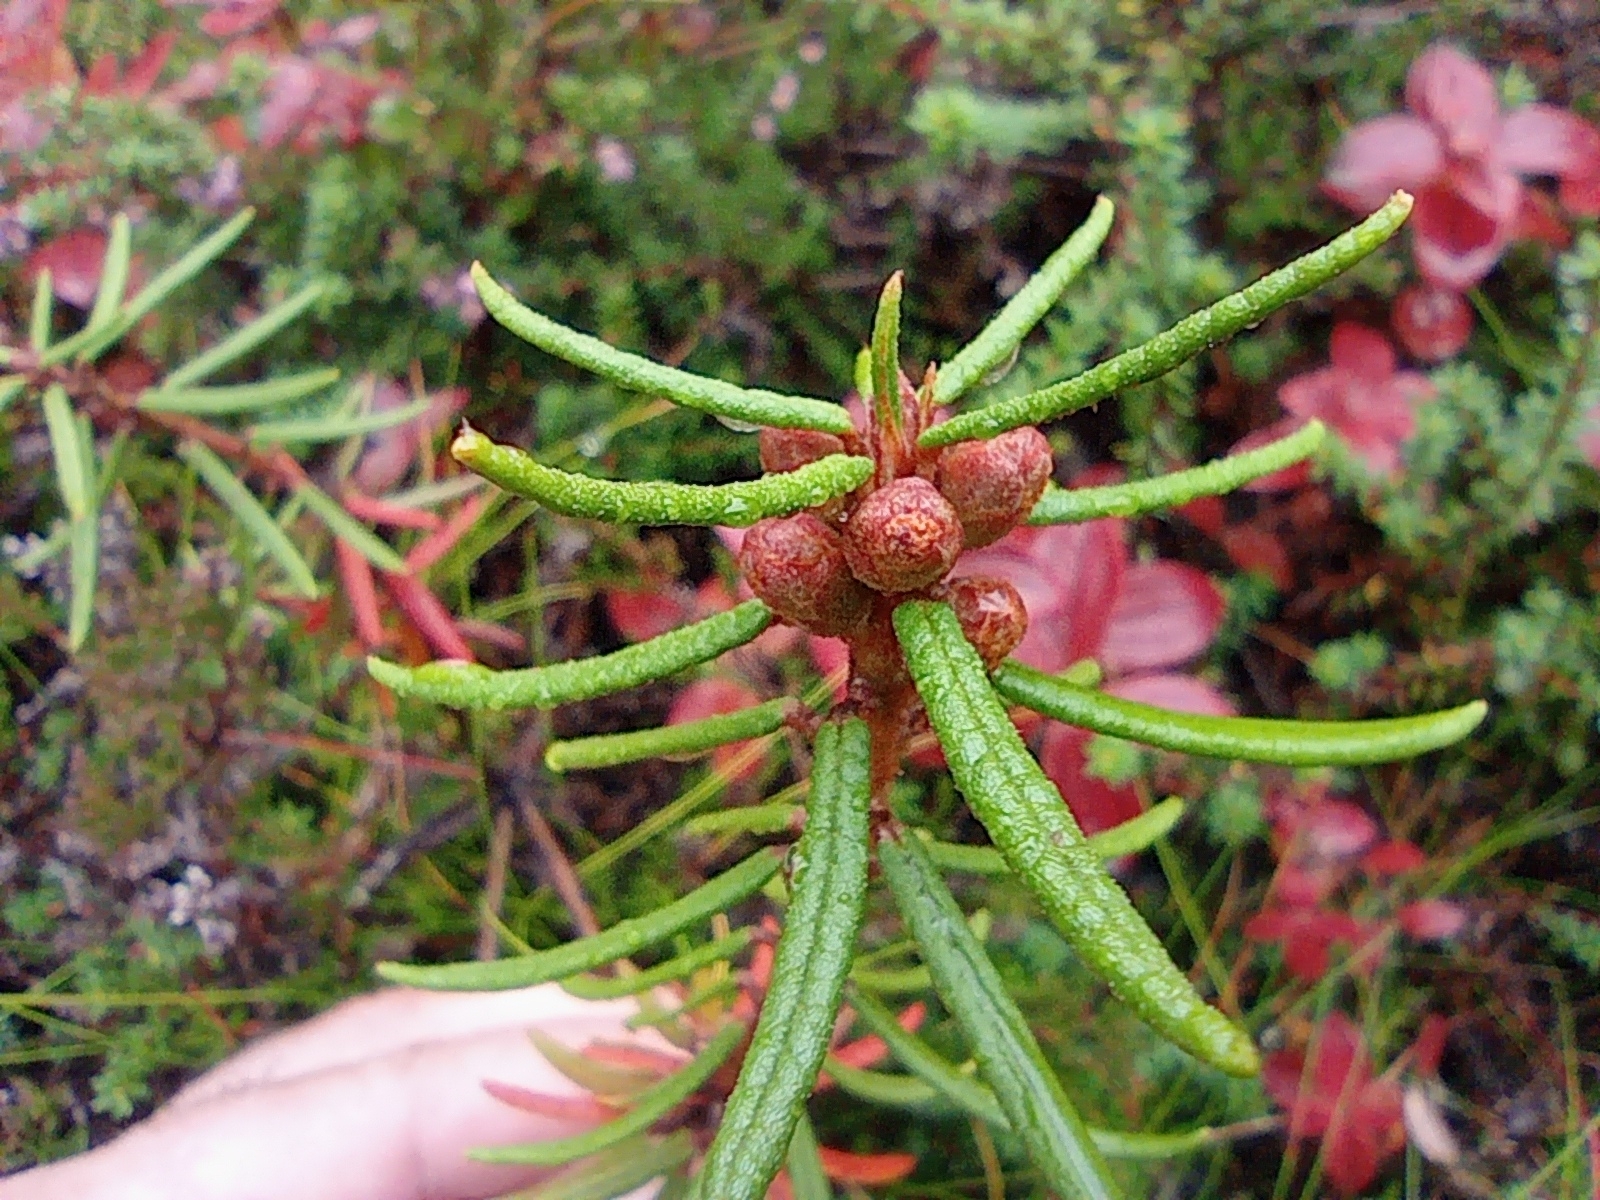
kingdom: Plantae
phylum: Tracheophyta
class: Magnoliopsida
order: Ericales
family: Ericaceae
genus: Rhododendron
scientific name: Rhododendron tomentosum
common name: Marsh labrador tea
